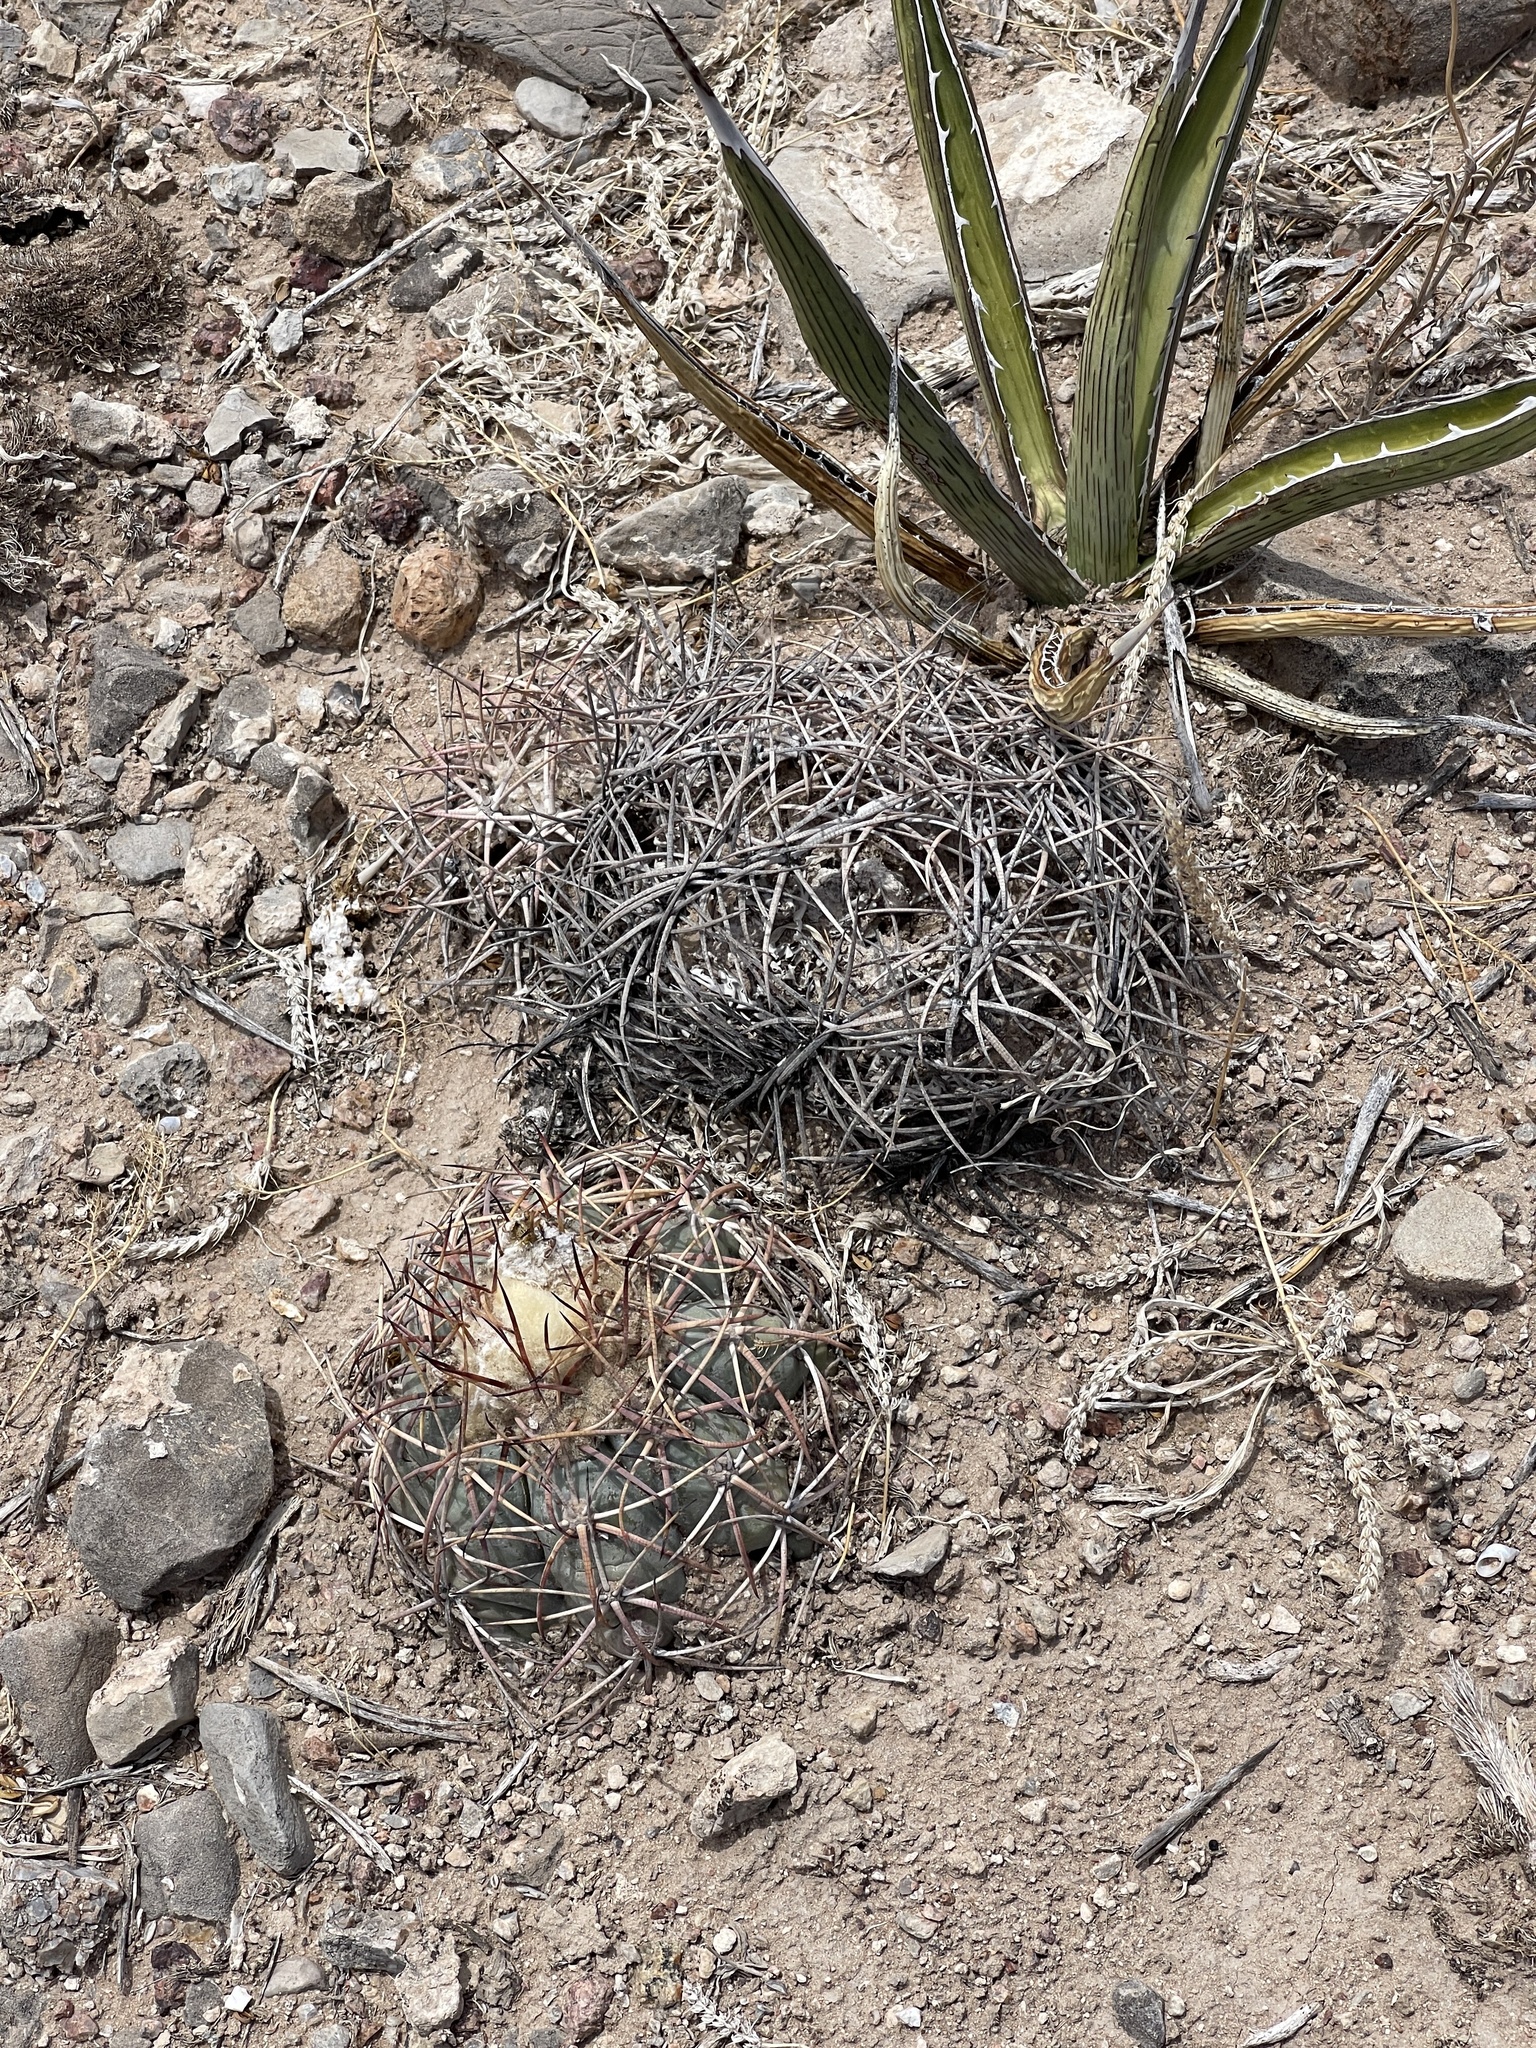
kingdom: Plantae
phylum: Tracheophyta
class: Magnoliopsida
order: Caryophyllales
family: Cactaceae
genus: Echinocactus
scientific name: Echinocactus horizonthalonius
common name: Devilshead
